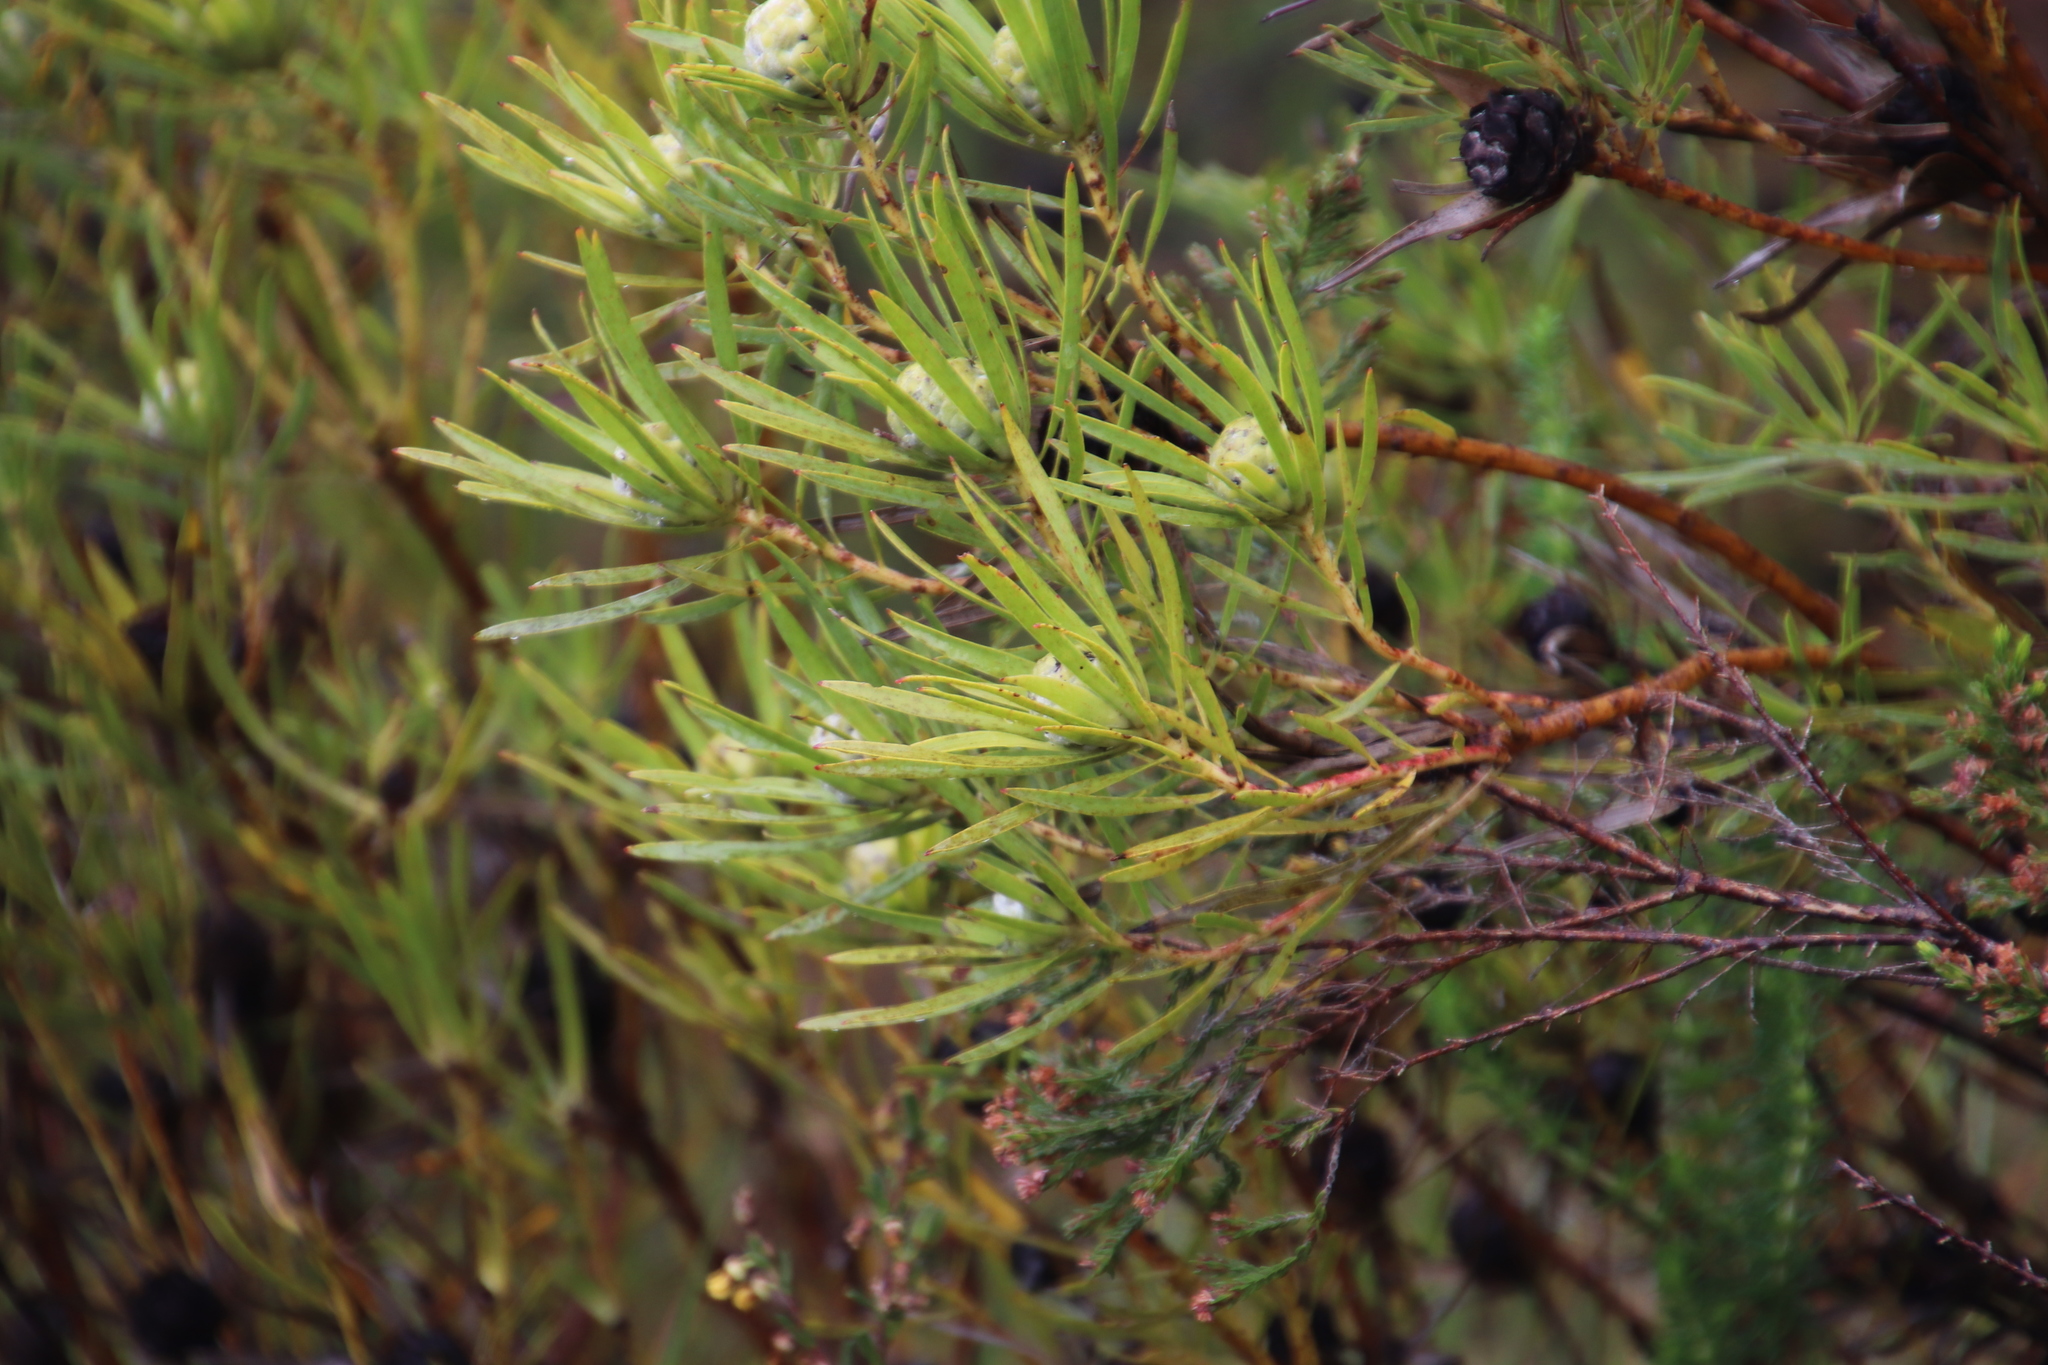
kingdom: Plantae
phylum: Tracheophyta
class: Magnoliopsida
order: Proteales
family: Proteaceae
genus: Leucadendron
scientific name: Leucadendron salignum
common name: Common sunshine conebush
